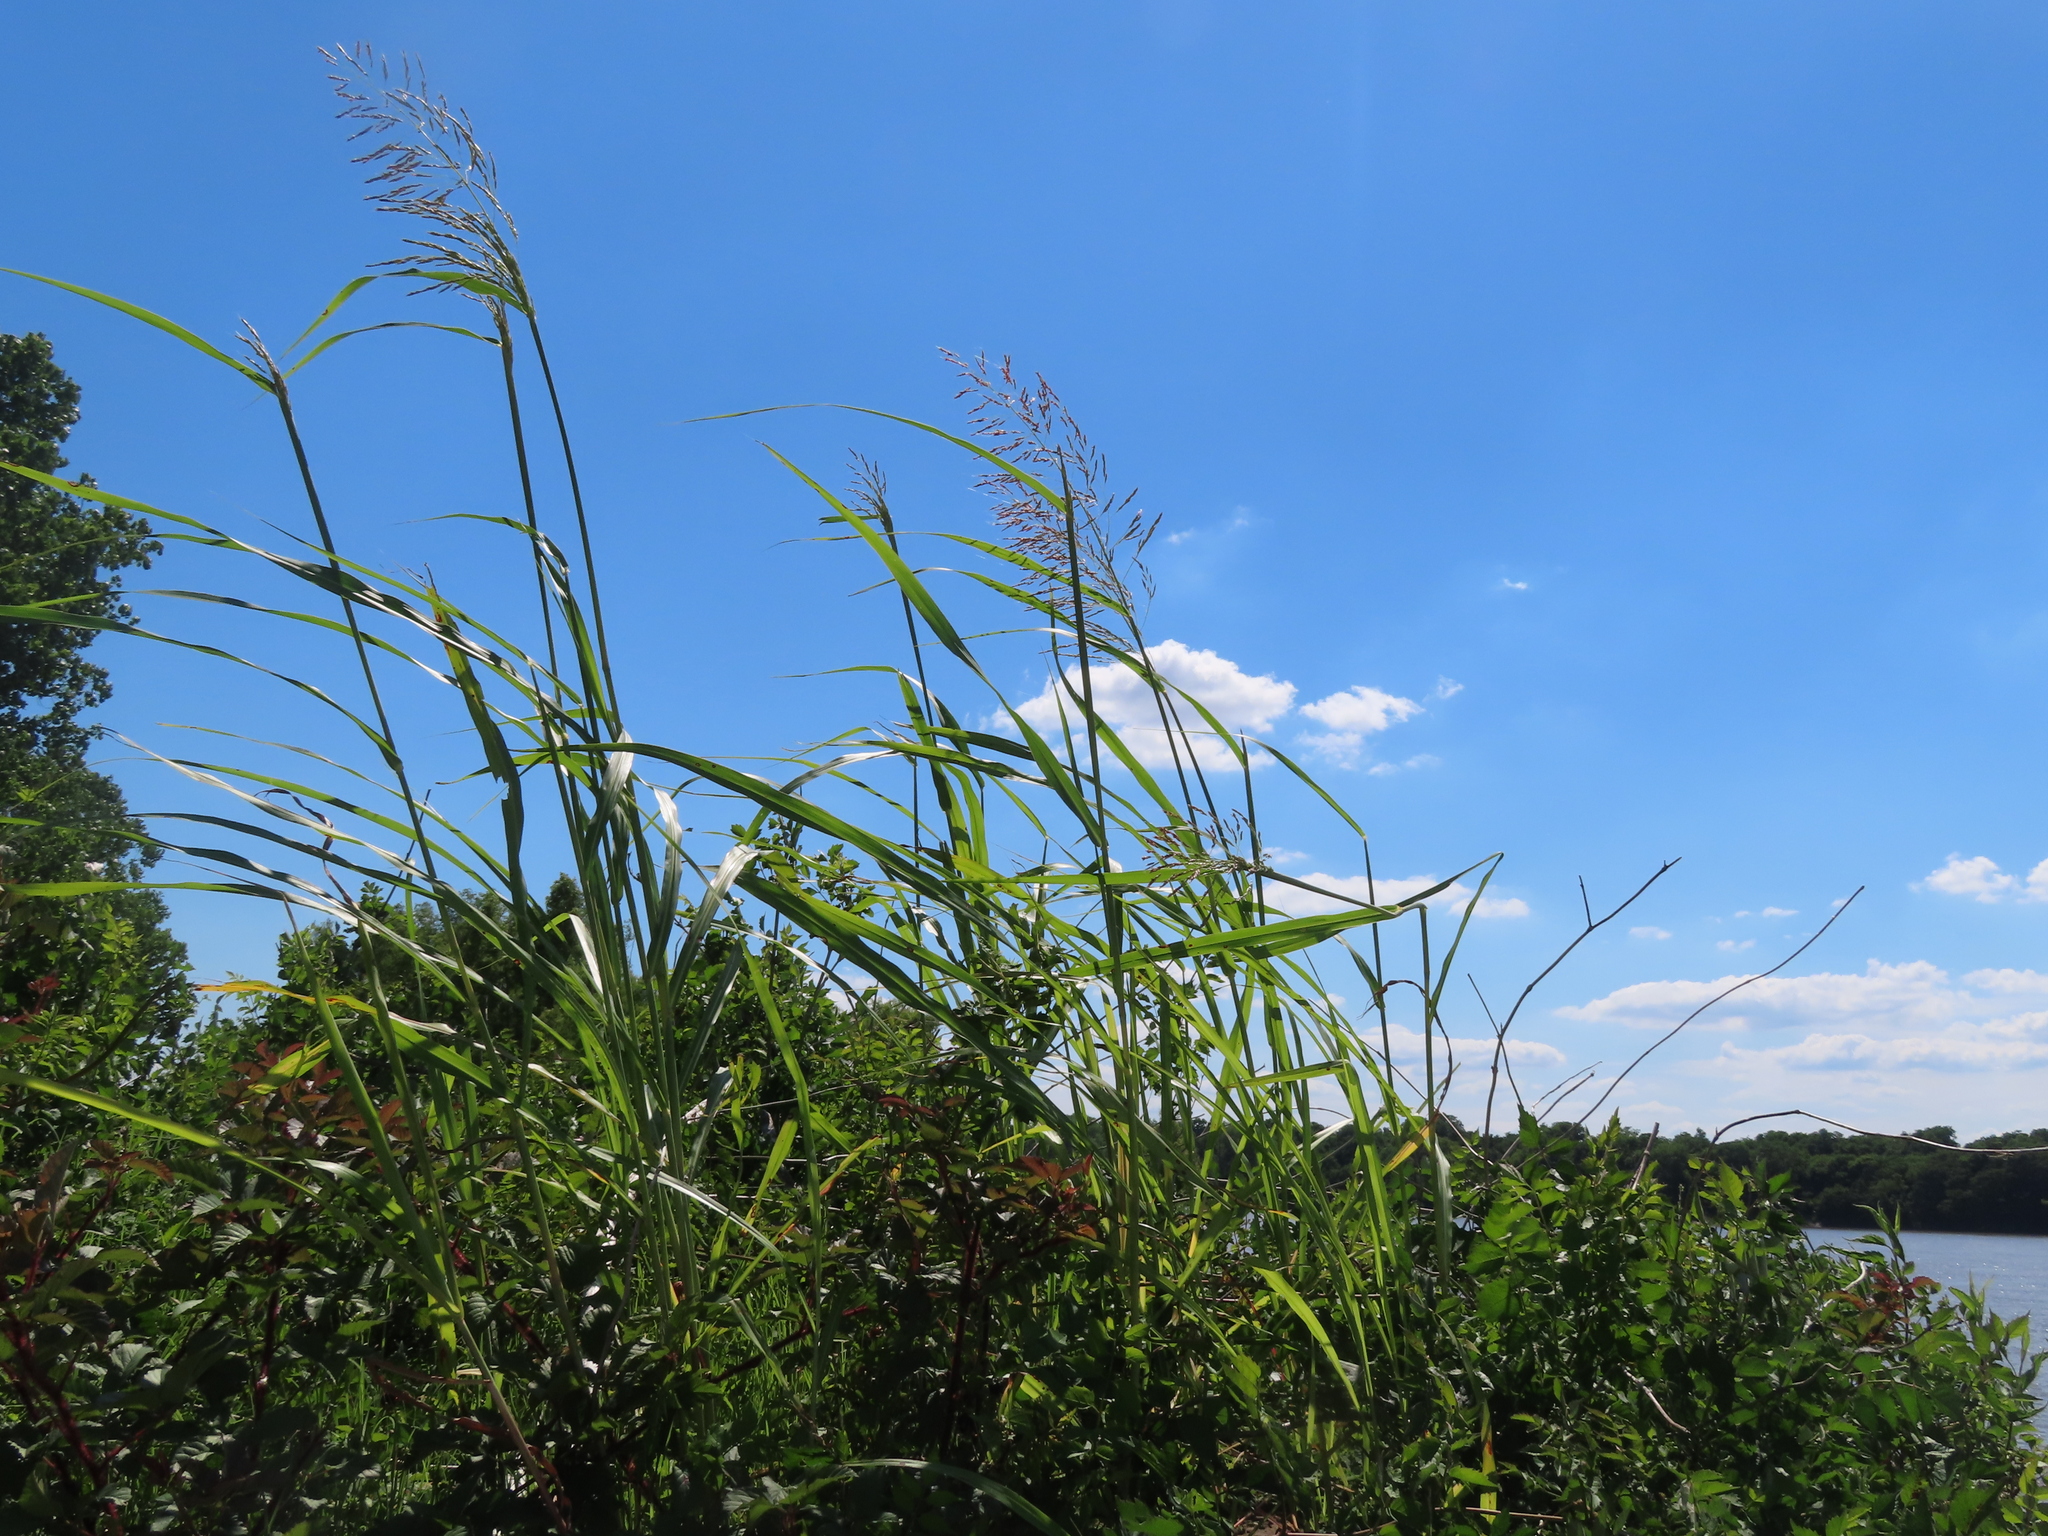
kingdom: Plantae
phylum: Tracheophyta
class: Liliopsida
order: Poales
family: Poaceae
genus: Sorghum
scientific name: Sorghum halepense
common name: Johnson-grass
